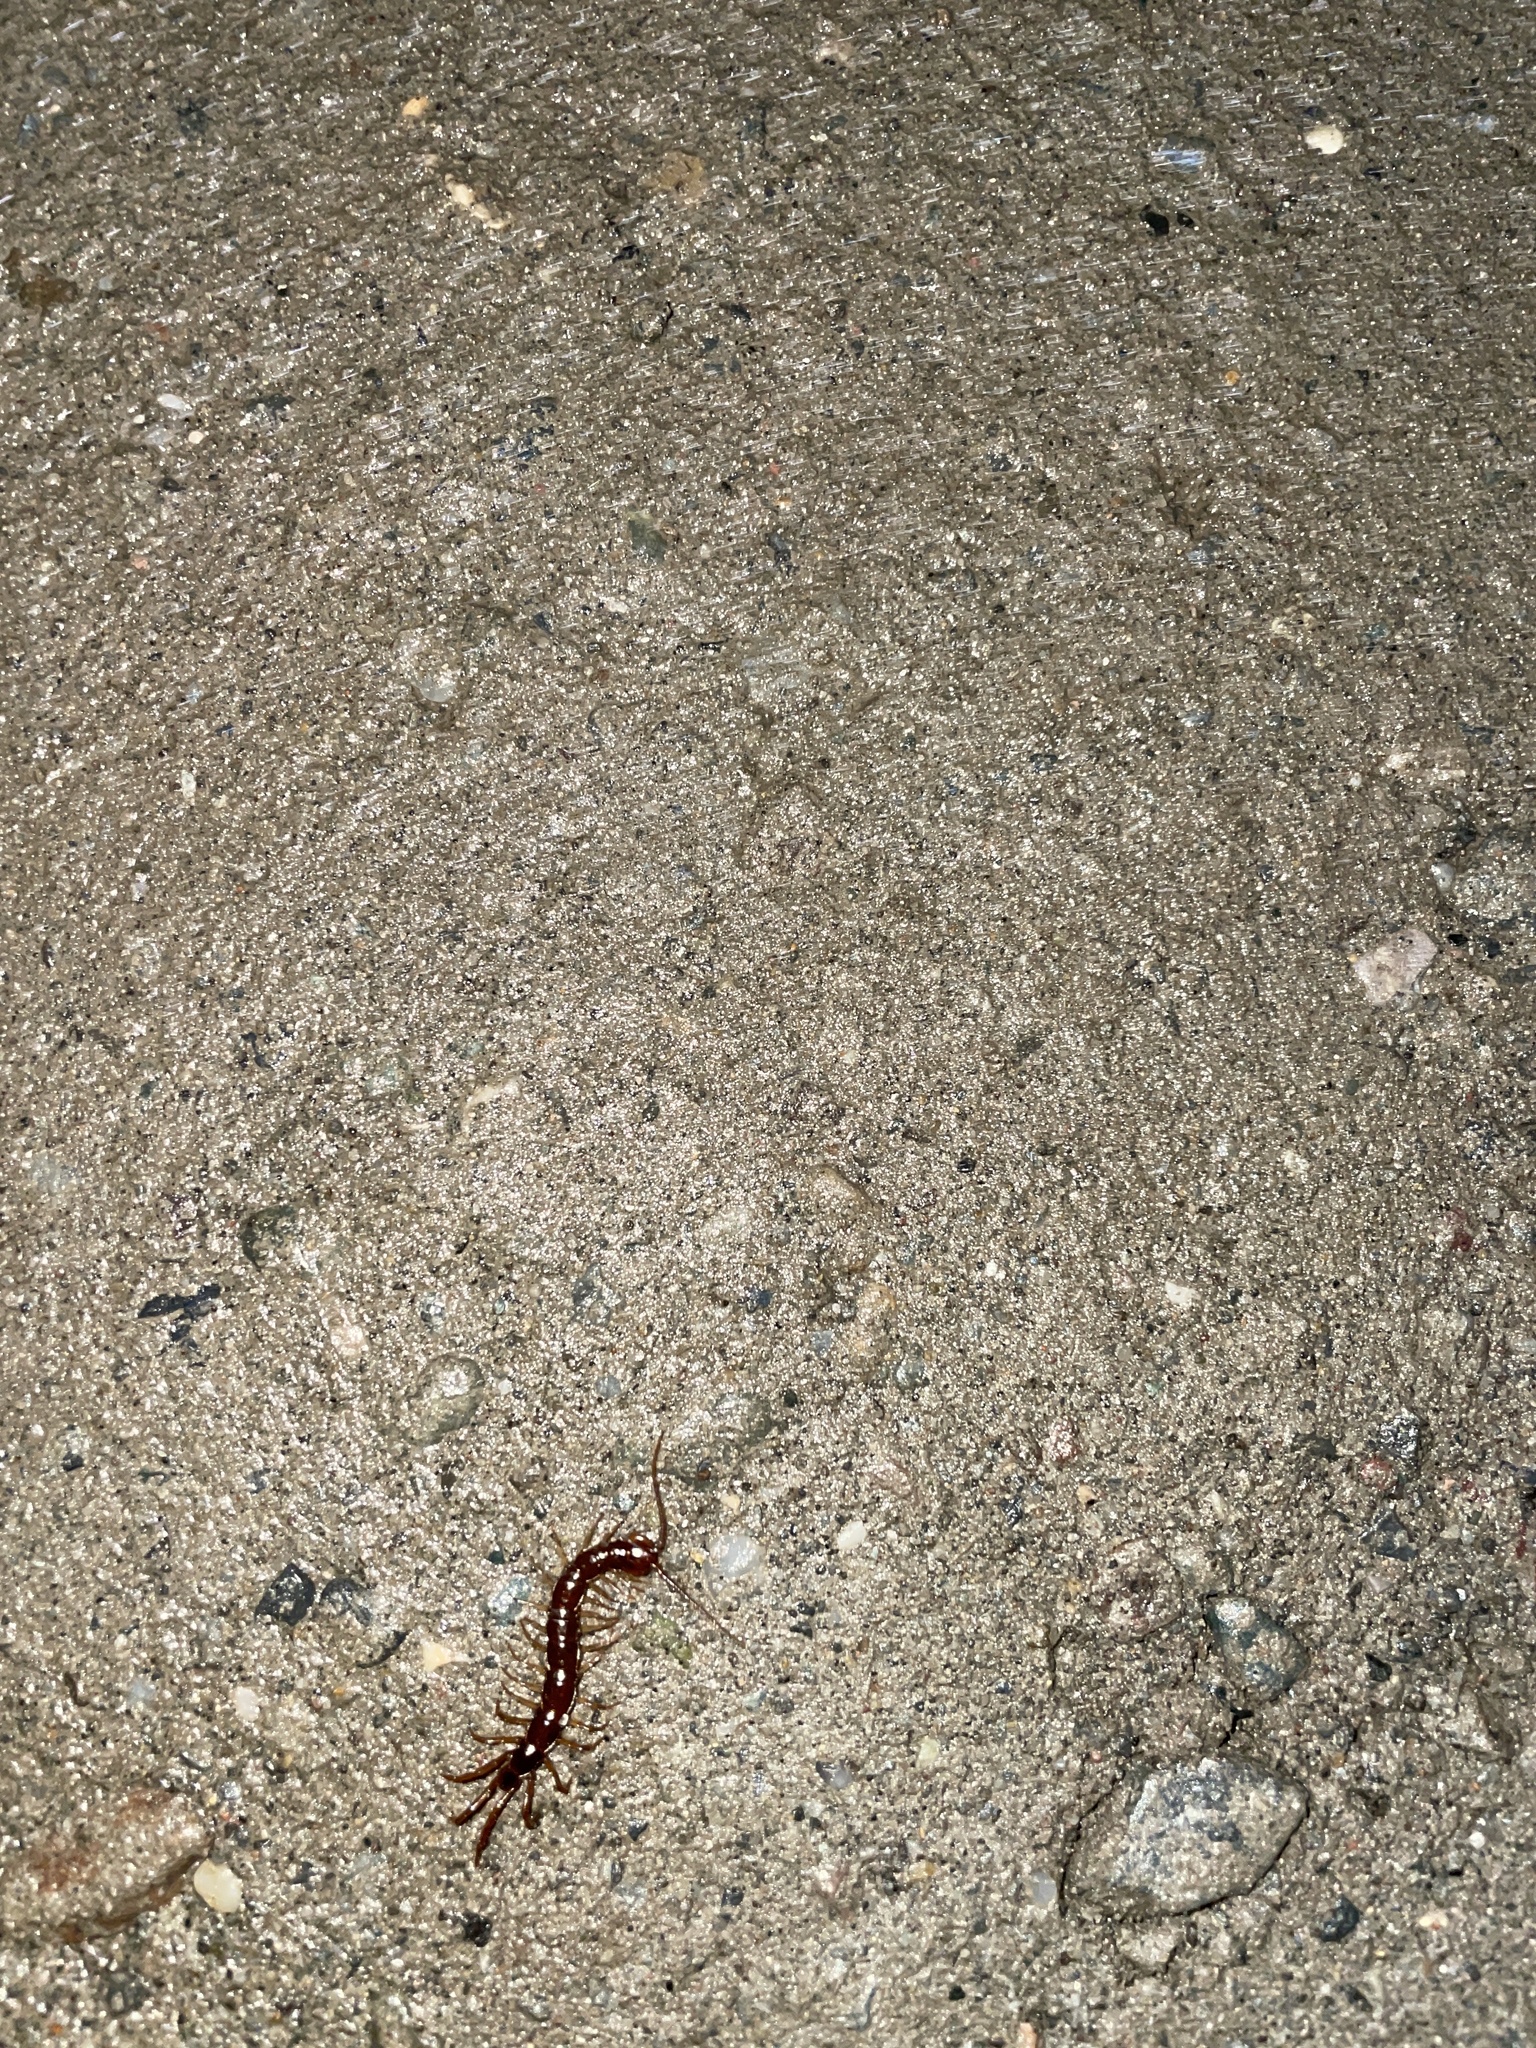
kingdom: Animalia
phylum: Arthropoda
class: Chilopoda
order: Lithobiomorpha
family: Lithobiidae
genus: Lithobius
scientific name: Lithobius forficatus
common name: Centipede
